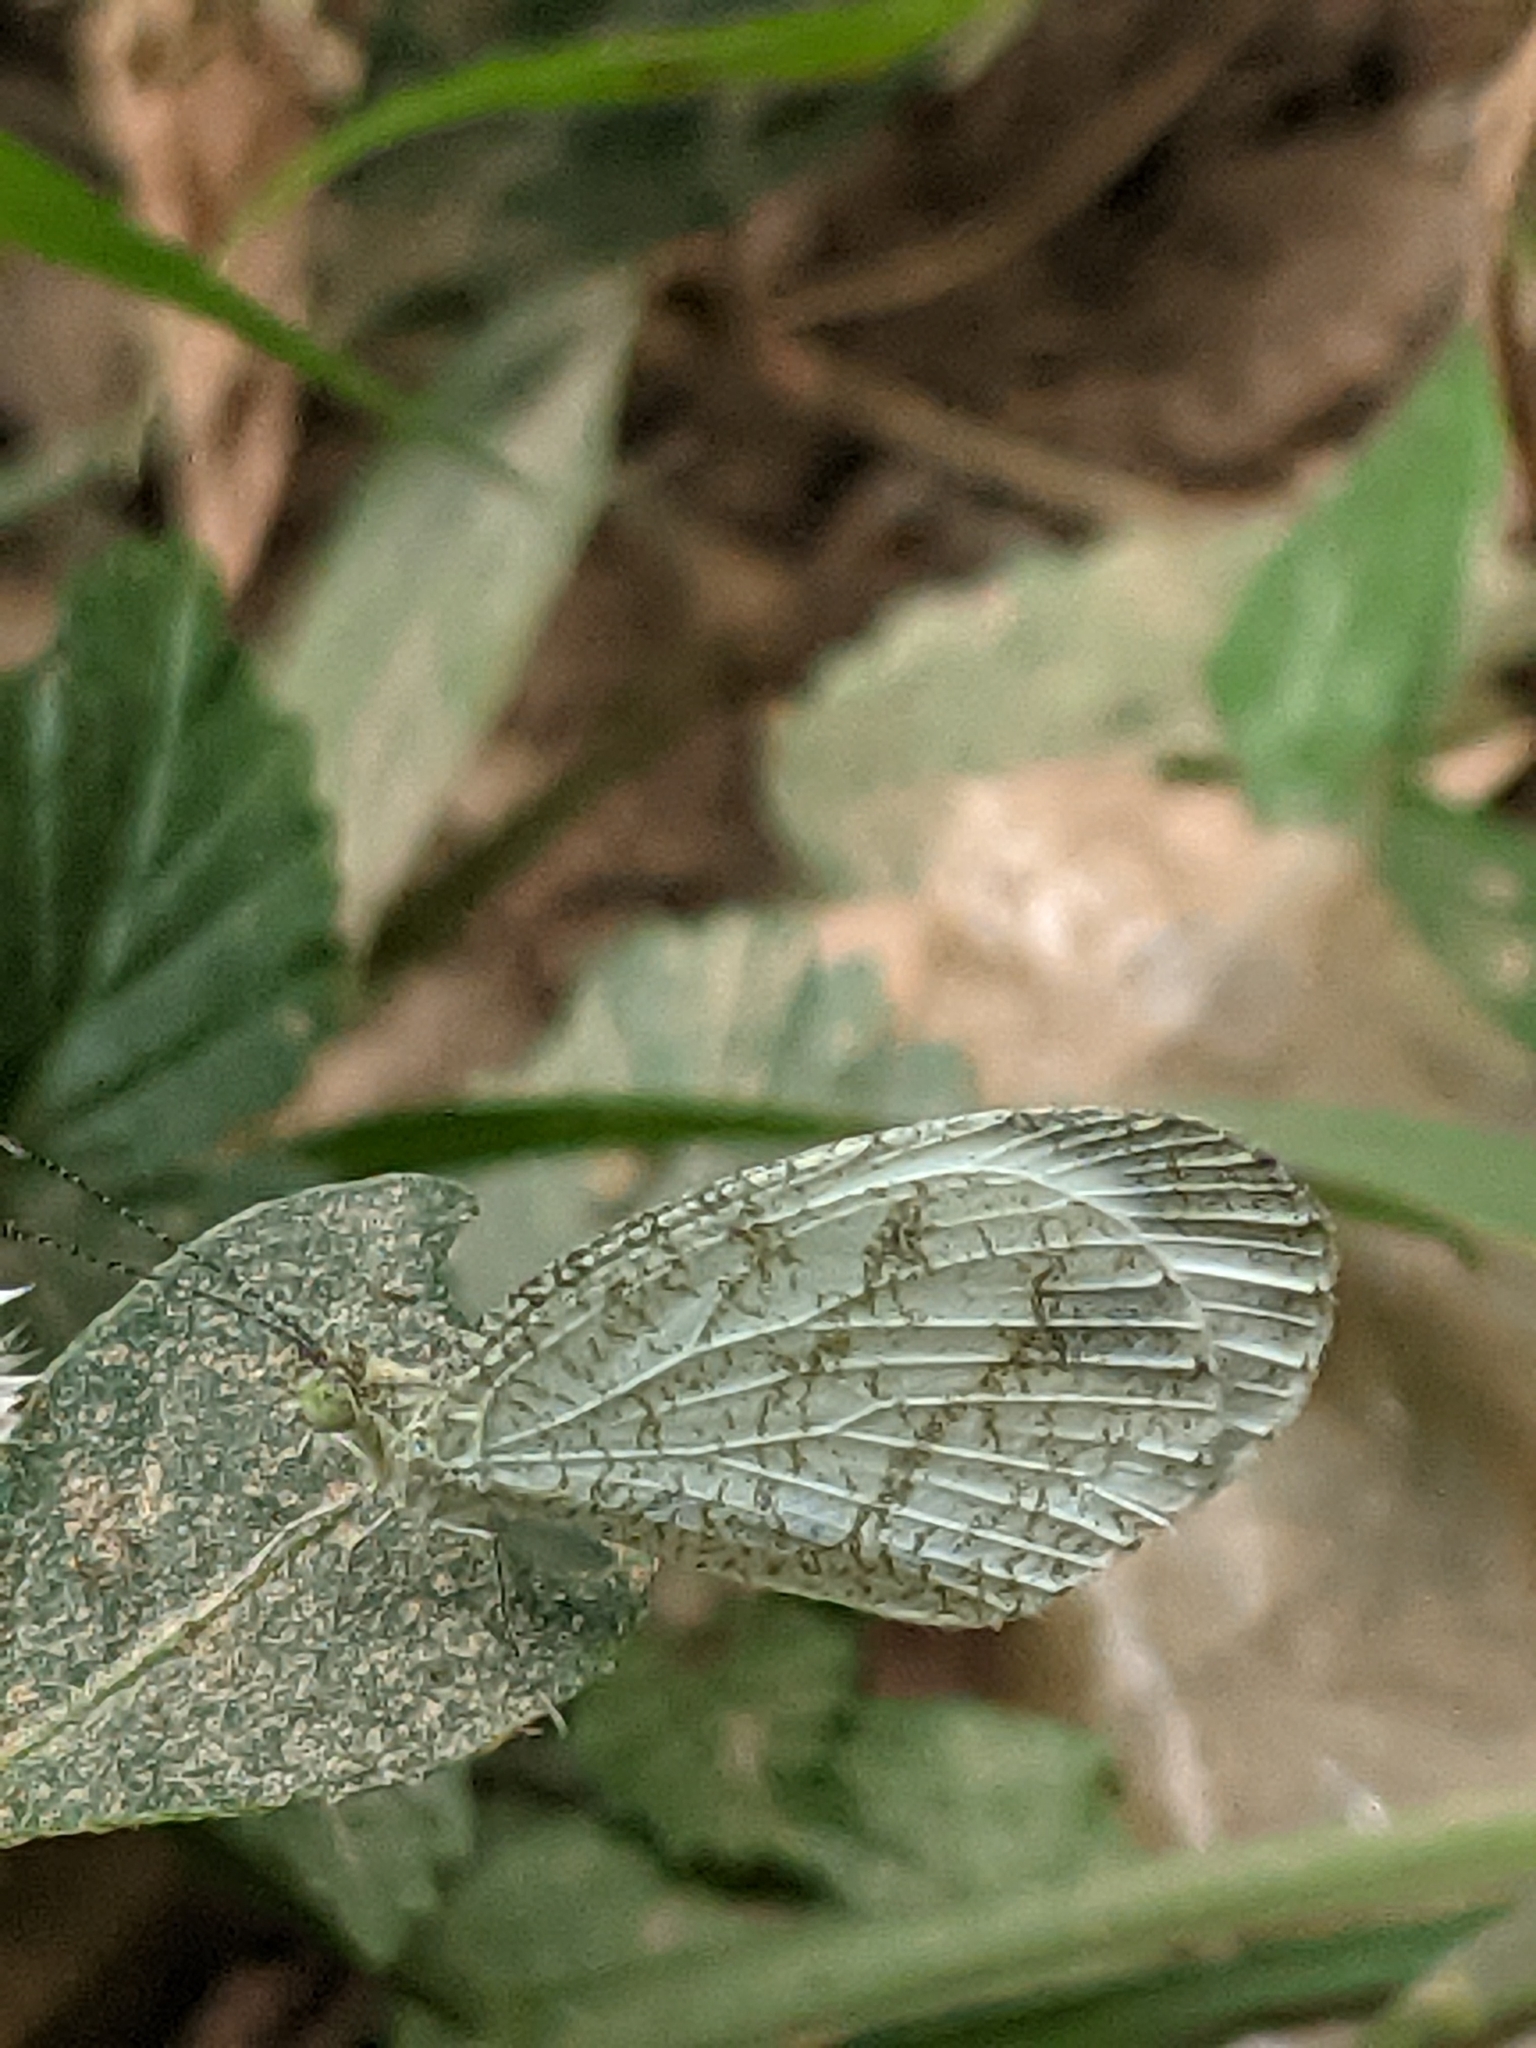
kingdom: Animalia
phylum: Arthropoda
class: Insecta
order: Lepidoptera
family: Pieridae
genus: Leptosia
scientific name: Leptosia nina
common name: Psyche
